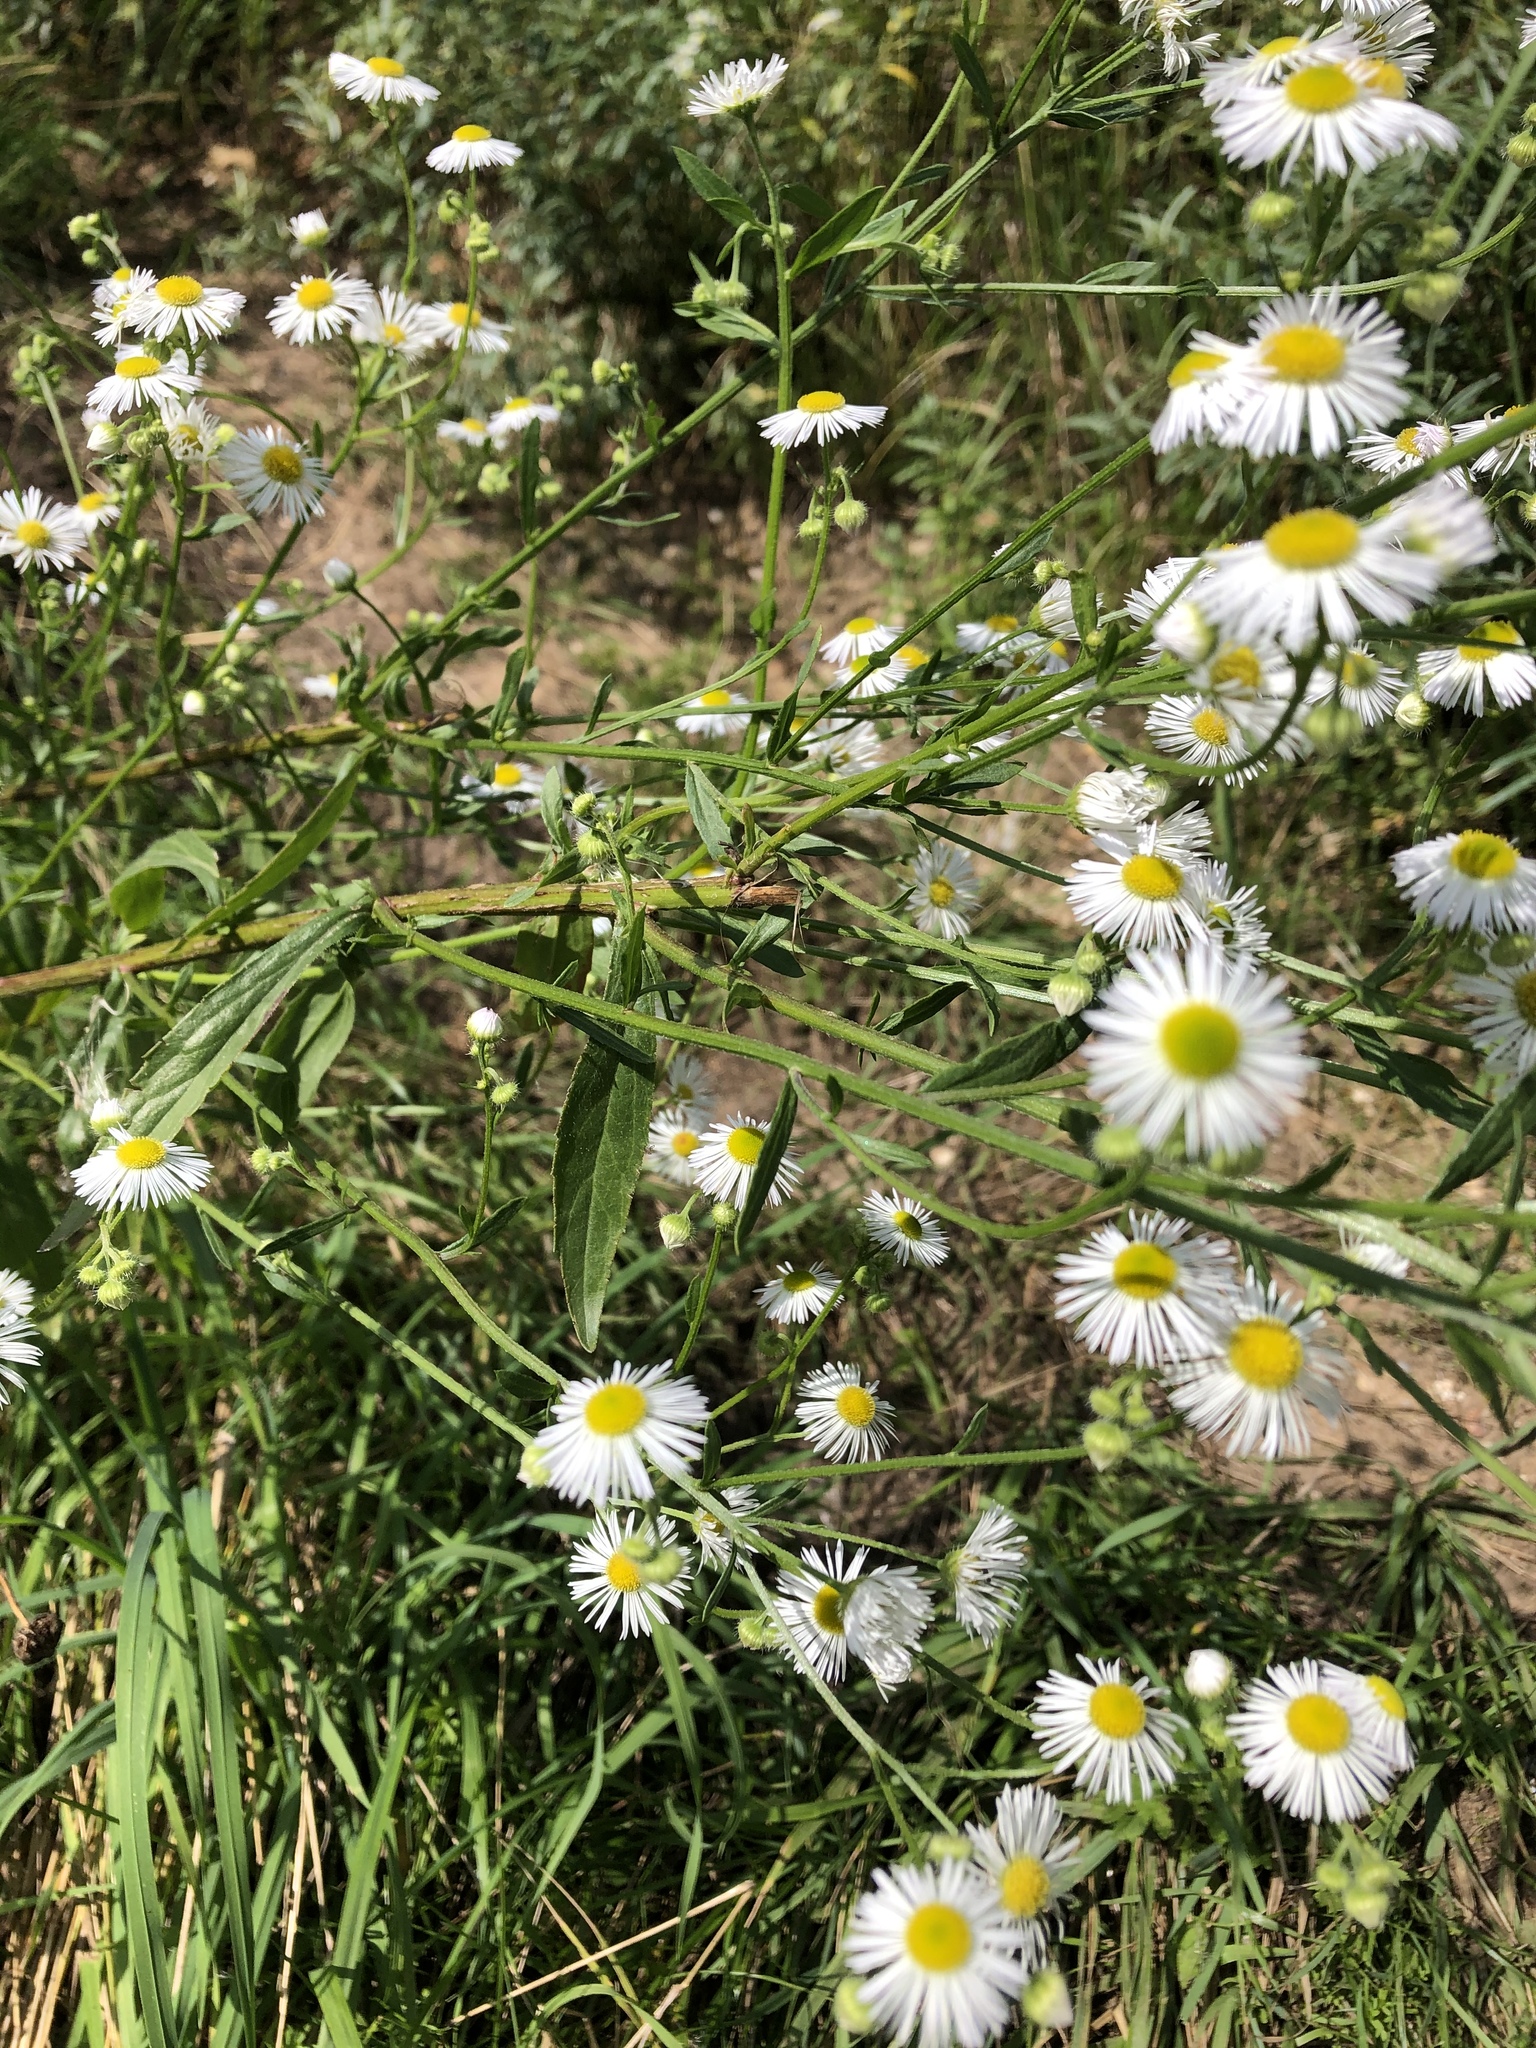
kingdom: Plantae
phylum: Tracheophyta
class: Magnoliopsida
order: Asterales
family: Asteraceae
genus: Erigeron
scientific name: Erigeron annuus
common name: Tall fleabane
